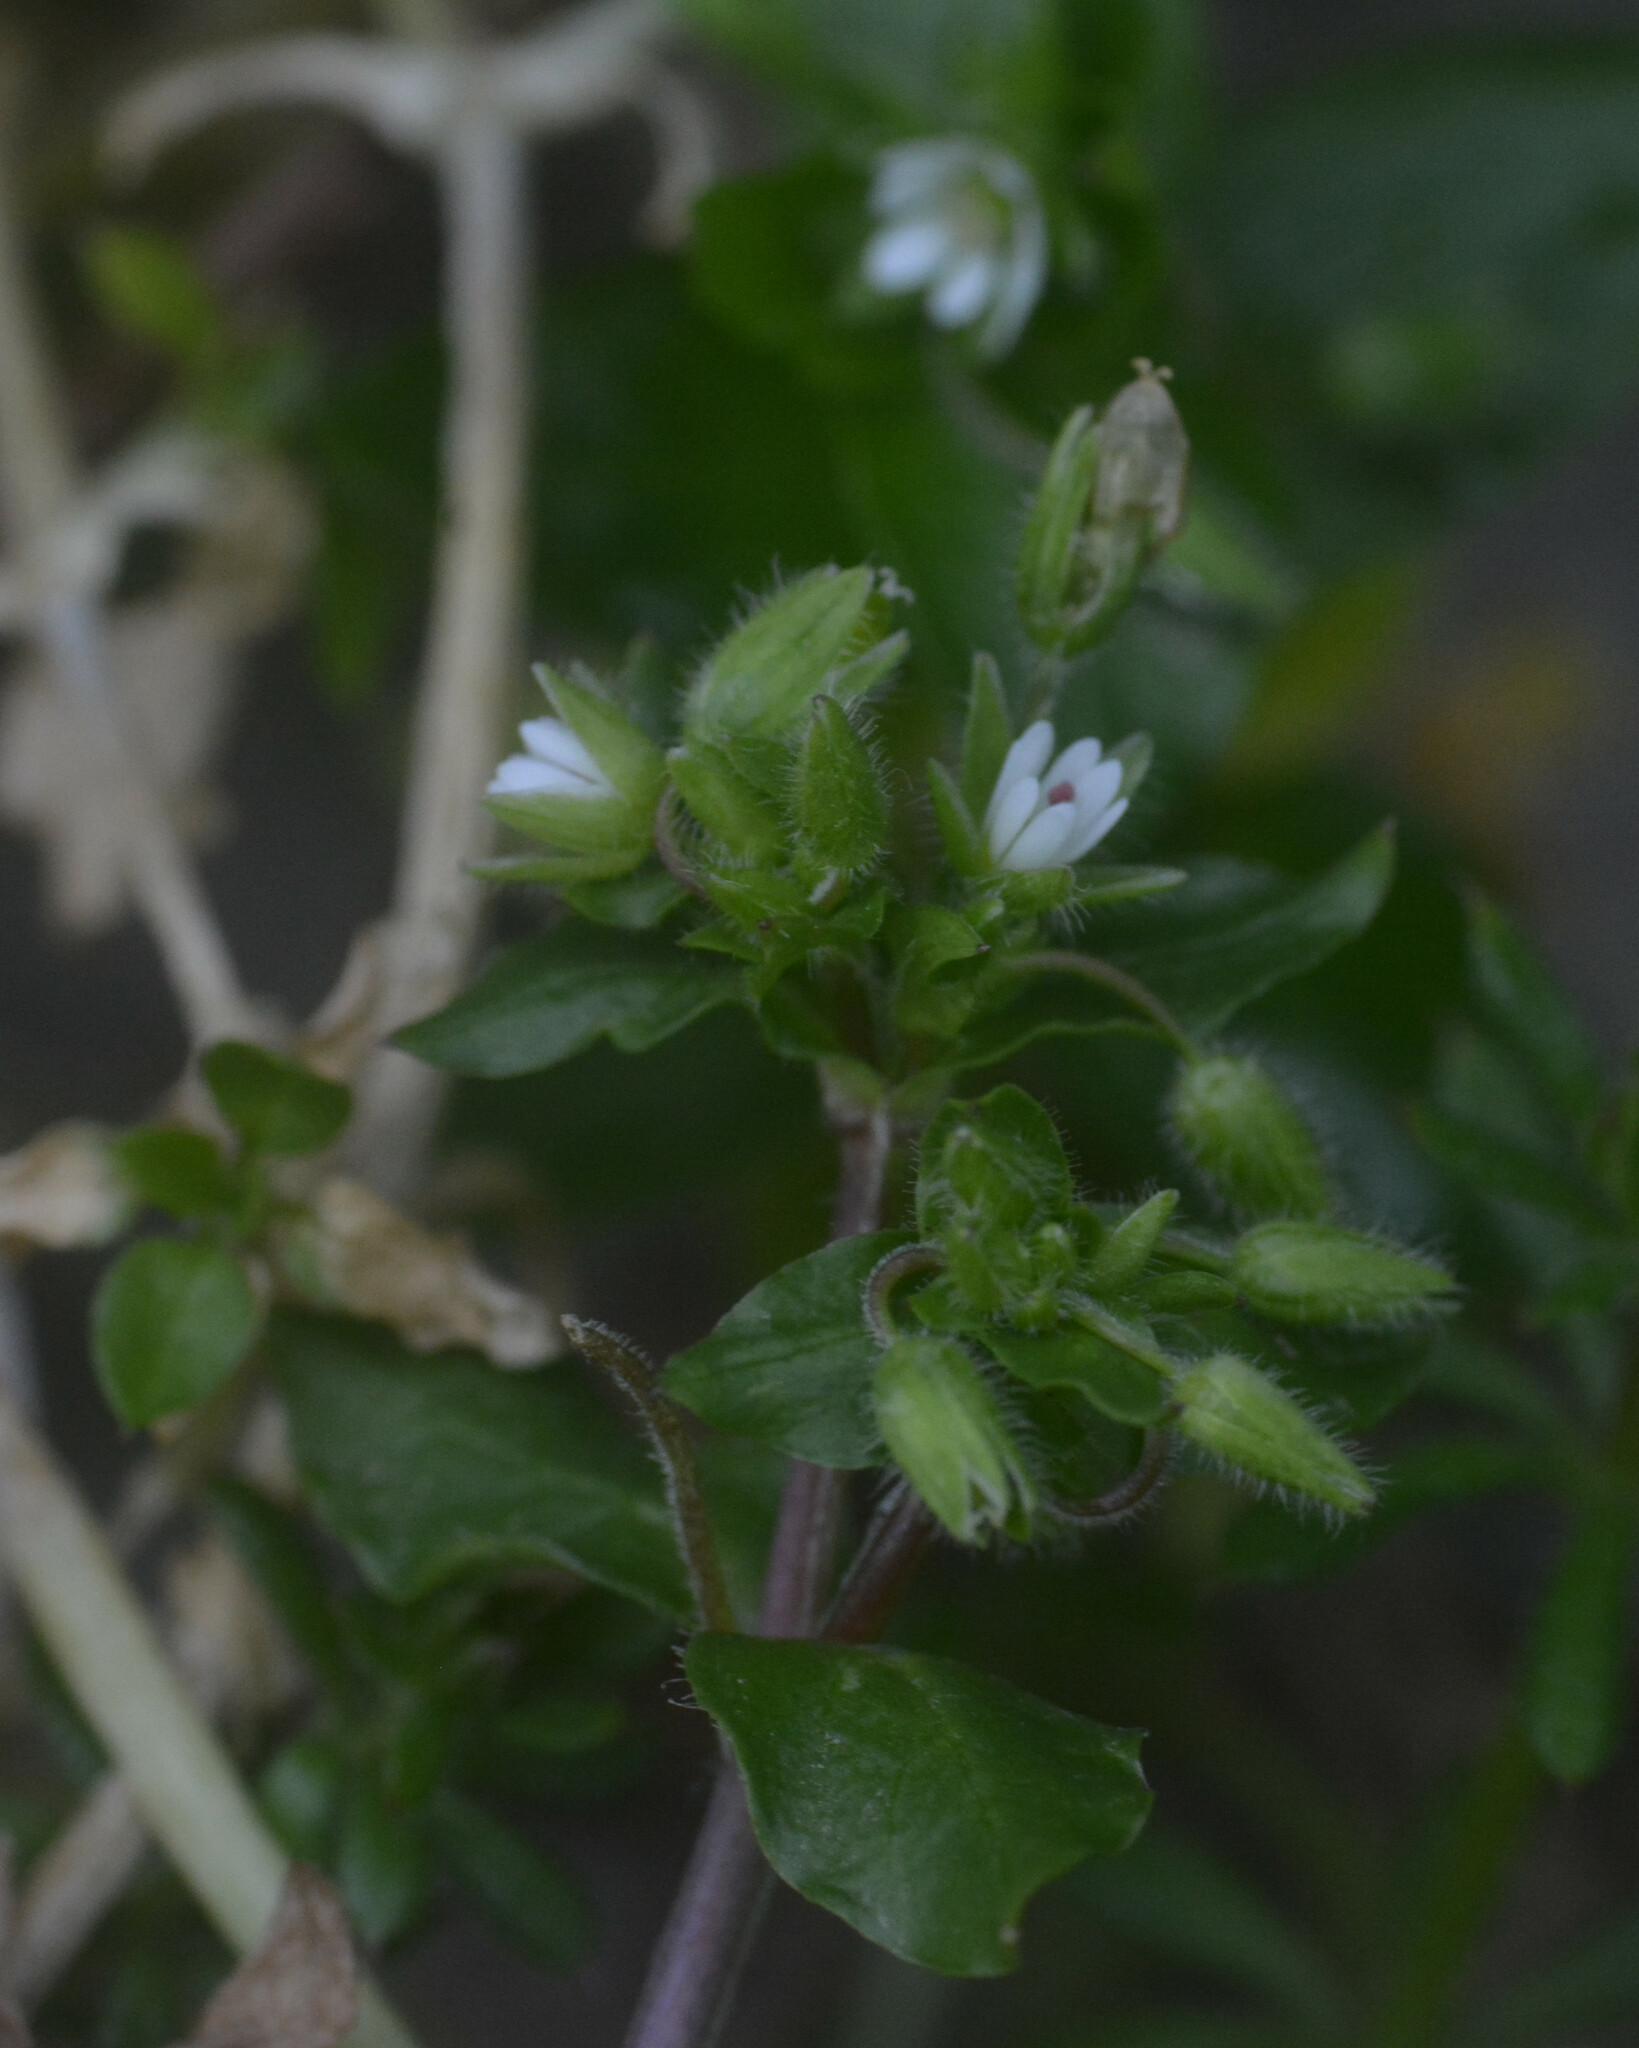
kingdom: Plantae
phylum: Tracheophyta
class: Magnoliopsida
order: Caryophyllales
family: Caryophyllaceae
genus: Stellaria
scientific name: Stellaria media
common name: Common chickweed
